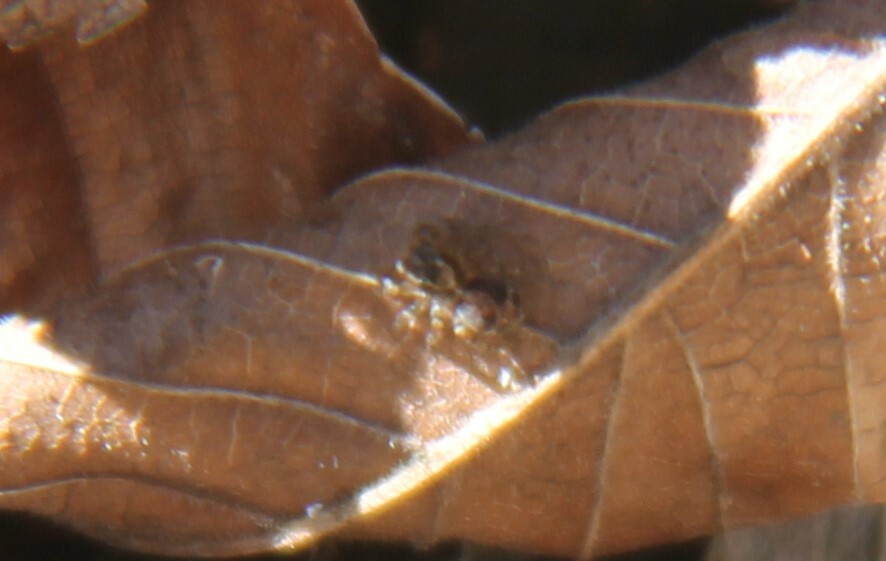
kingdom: Animalia
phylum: Arthropoda
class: Arachnida
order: Araneae
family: Salticidae
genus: Naphrys
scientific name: Naphrys pulex
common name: Flea jumping spider
